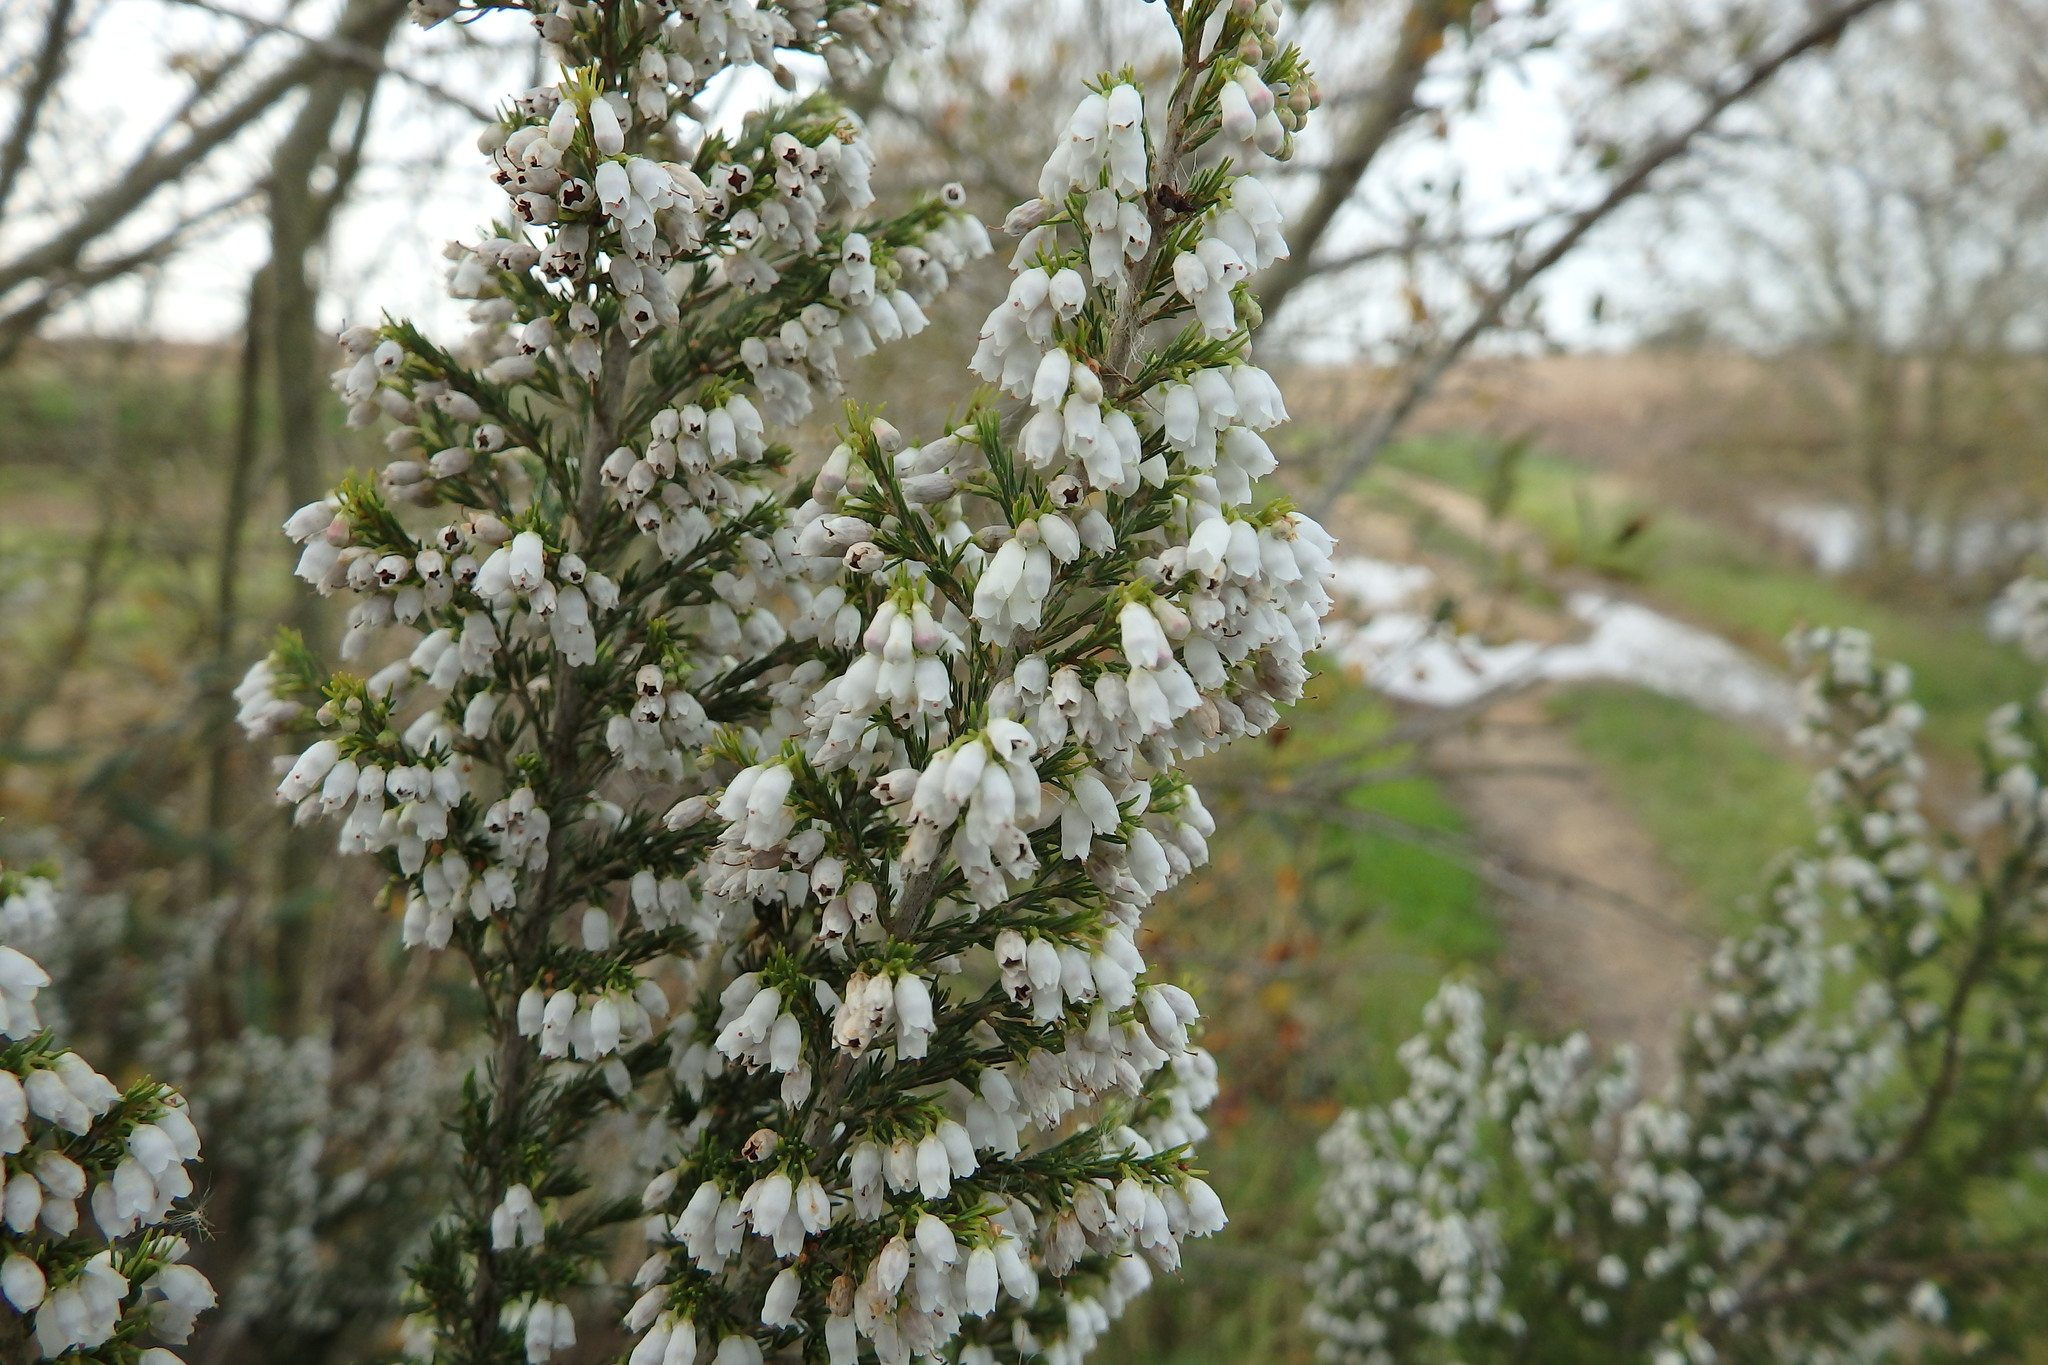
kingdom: Plantae
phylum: Tracheophyta
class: Magnoliopsida
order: Ericales
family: Ericaceae
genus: Erica
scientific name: Erica lusitanica
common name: Spanish heath
